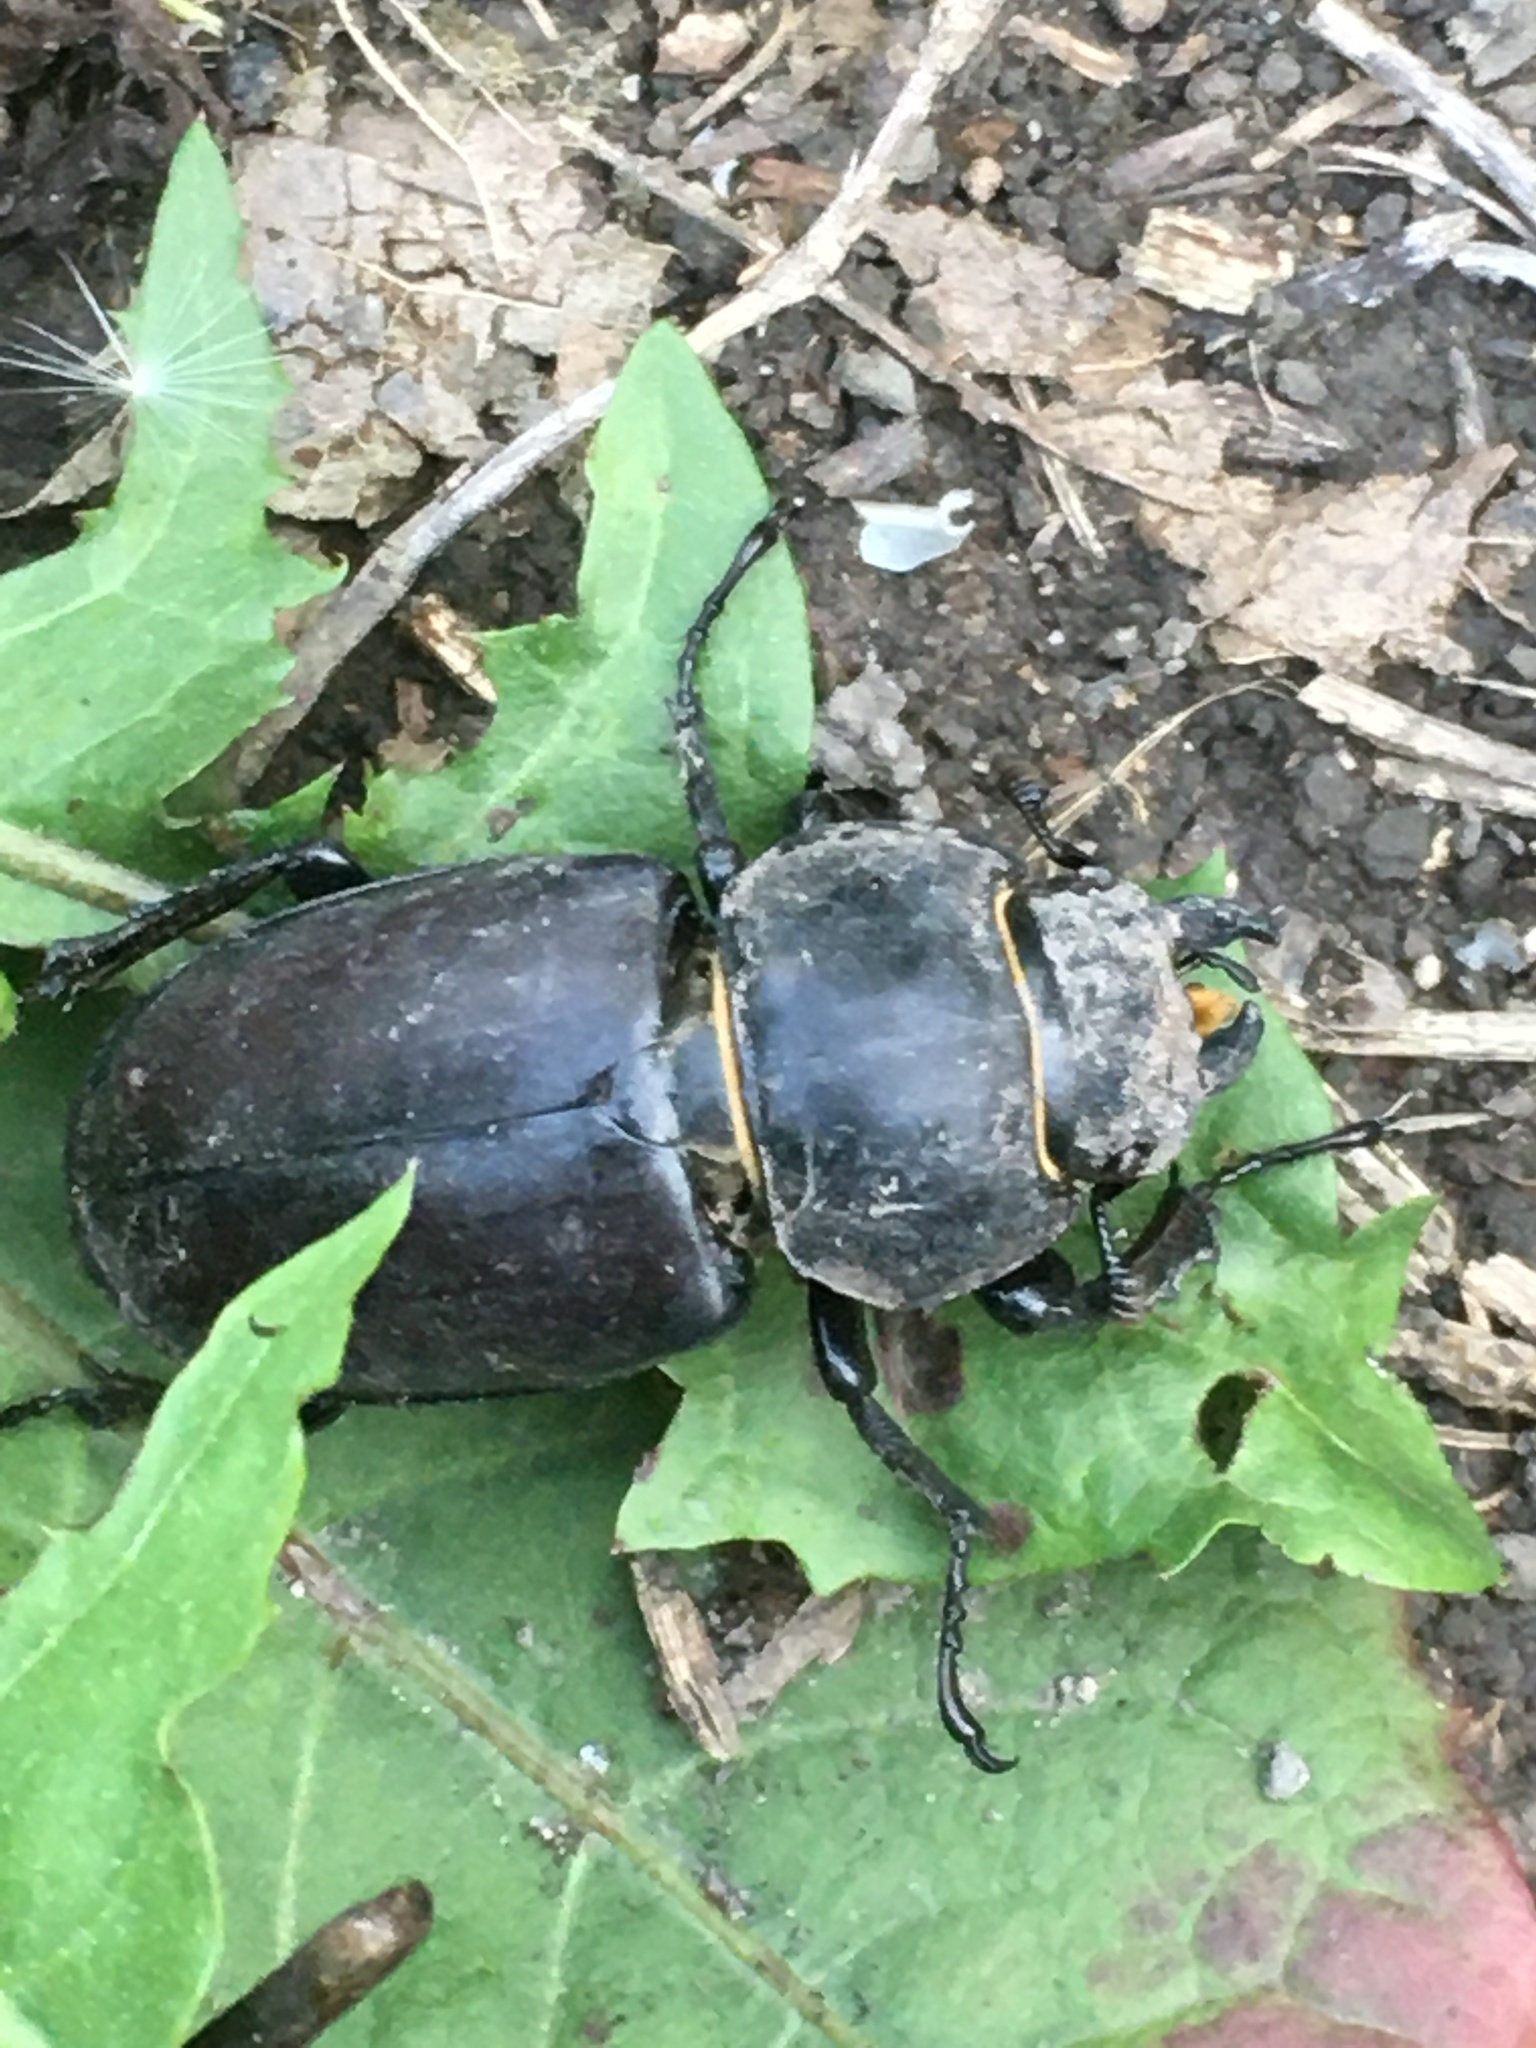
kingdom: Animalia
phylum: Arthropoda
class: Insecta
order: Coleoptera
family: Lucanidae
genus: Lucanus
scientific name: Lucanus cervus
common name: Stag beetle
